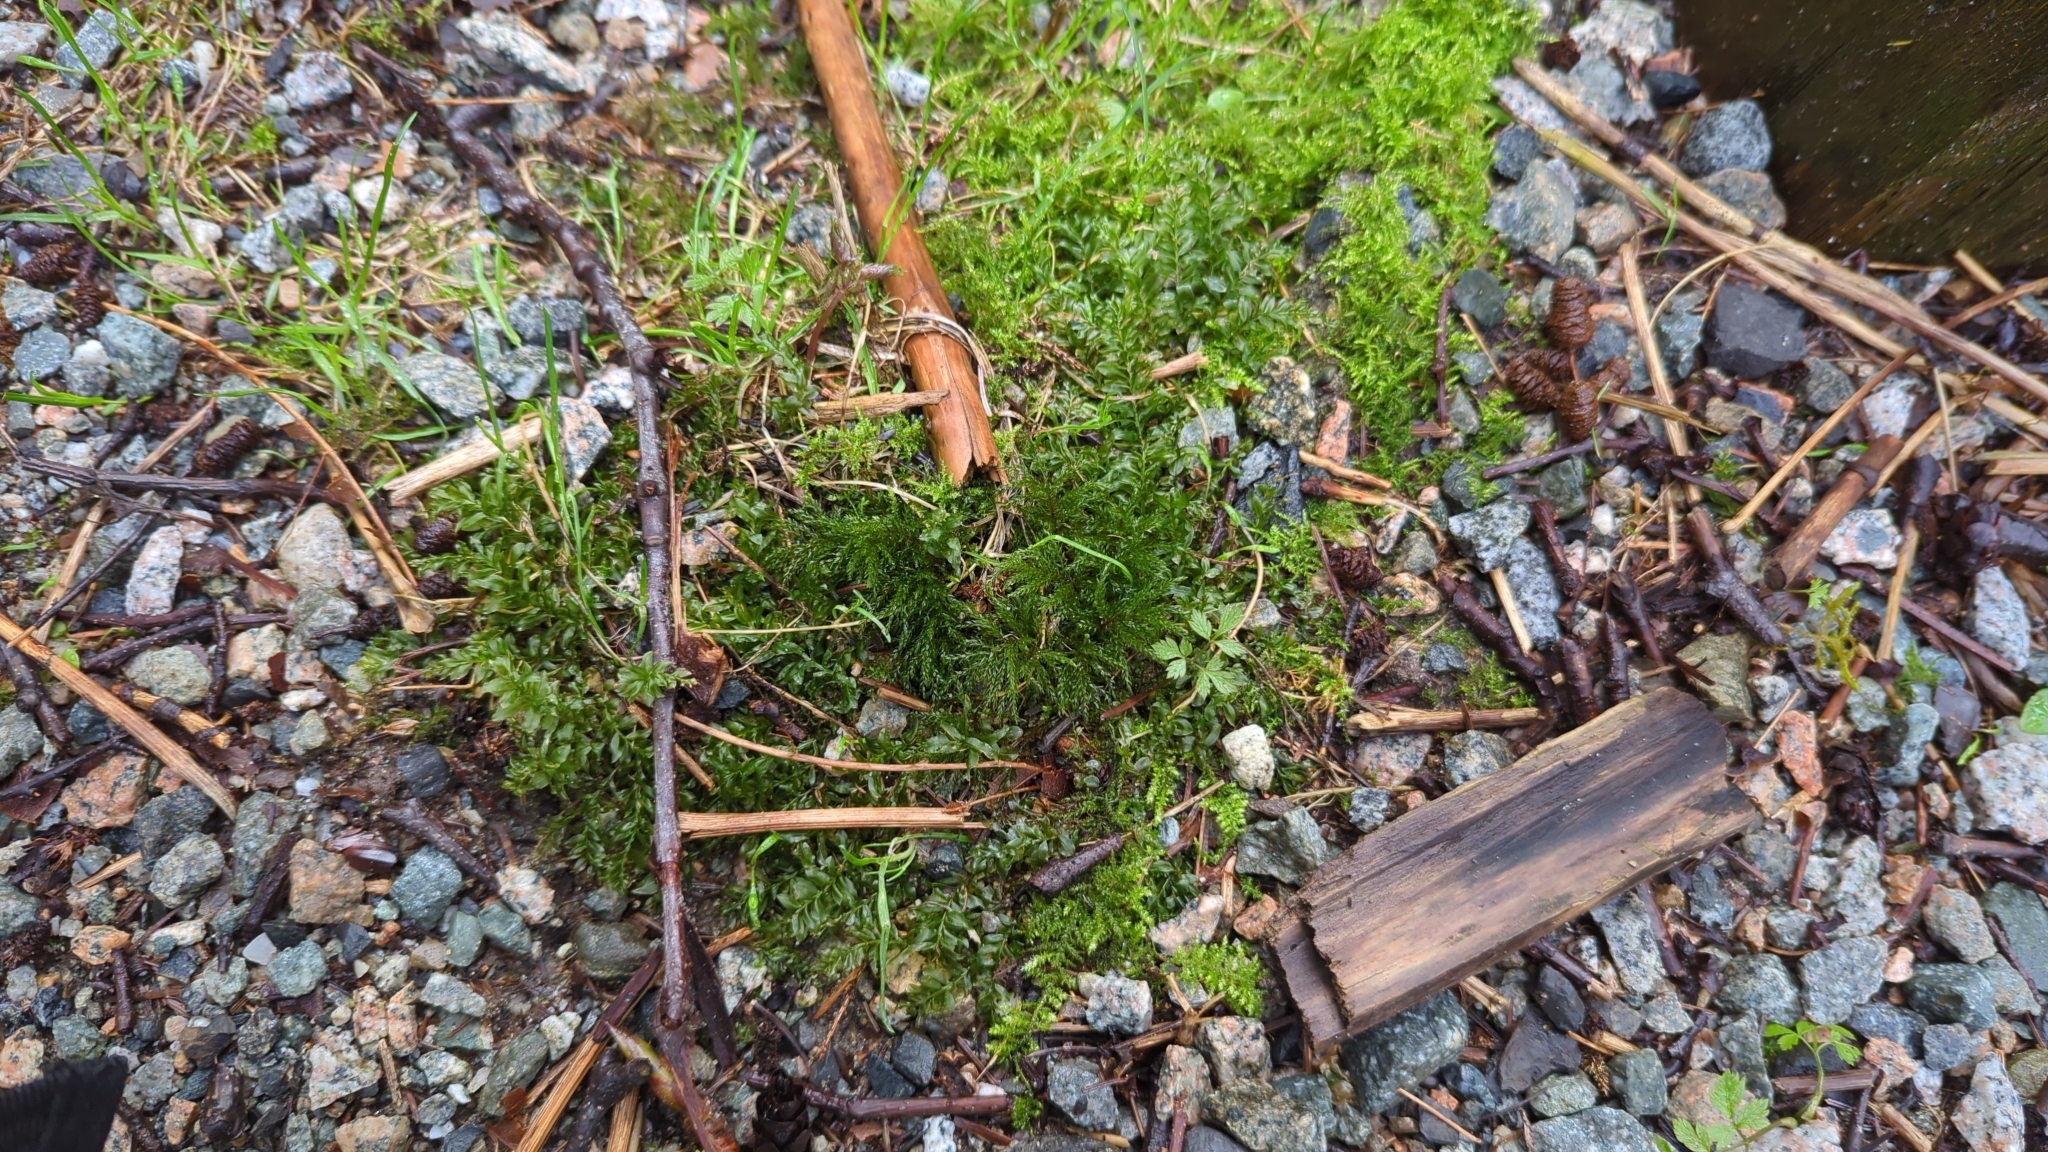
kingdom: Plantae
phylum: Bryophyta
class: Bryopsida
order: Bryales
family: Mniaceae
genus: Leucolepis
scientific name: Leucolepis acanthoneura
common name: Leucolepis umbrella moss
